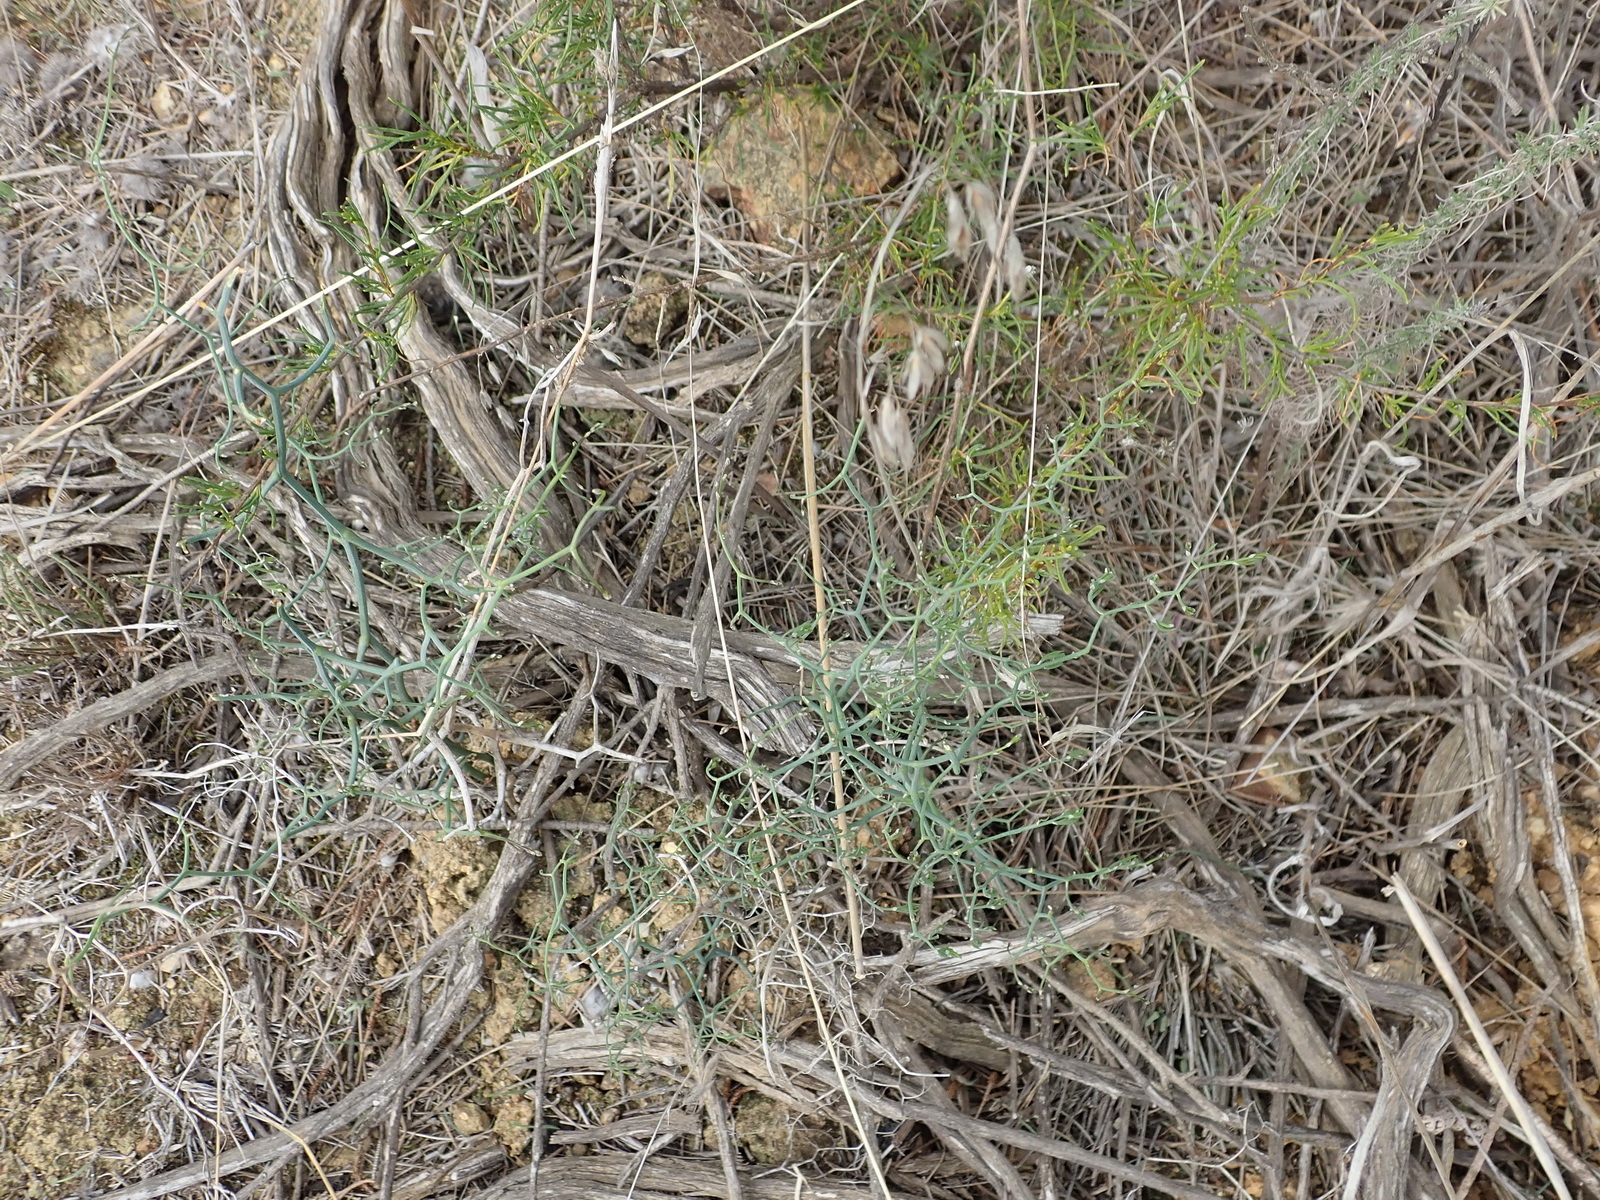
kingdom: Plantae
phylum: Tracheophyta
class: Liliopsida
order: Asparagales
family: Asparagaceae
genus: Asparagus
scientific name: Asparagus declinatus
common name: Bridal-creeper
